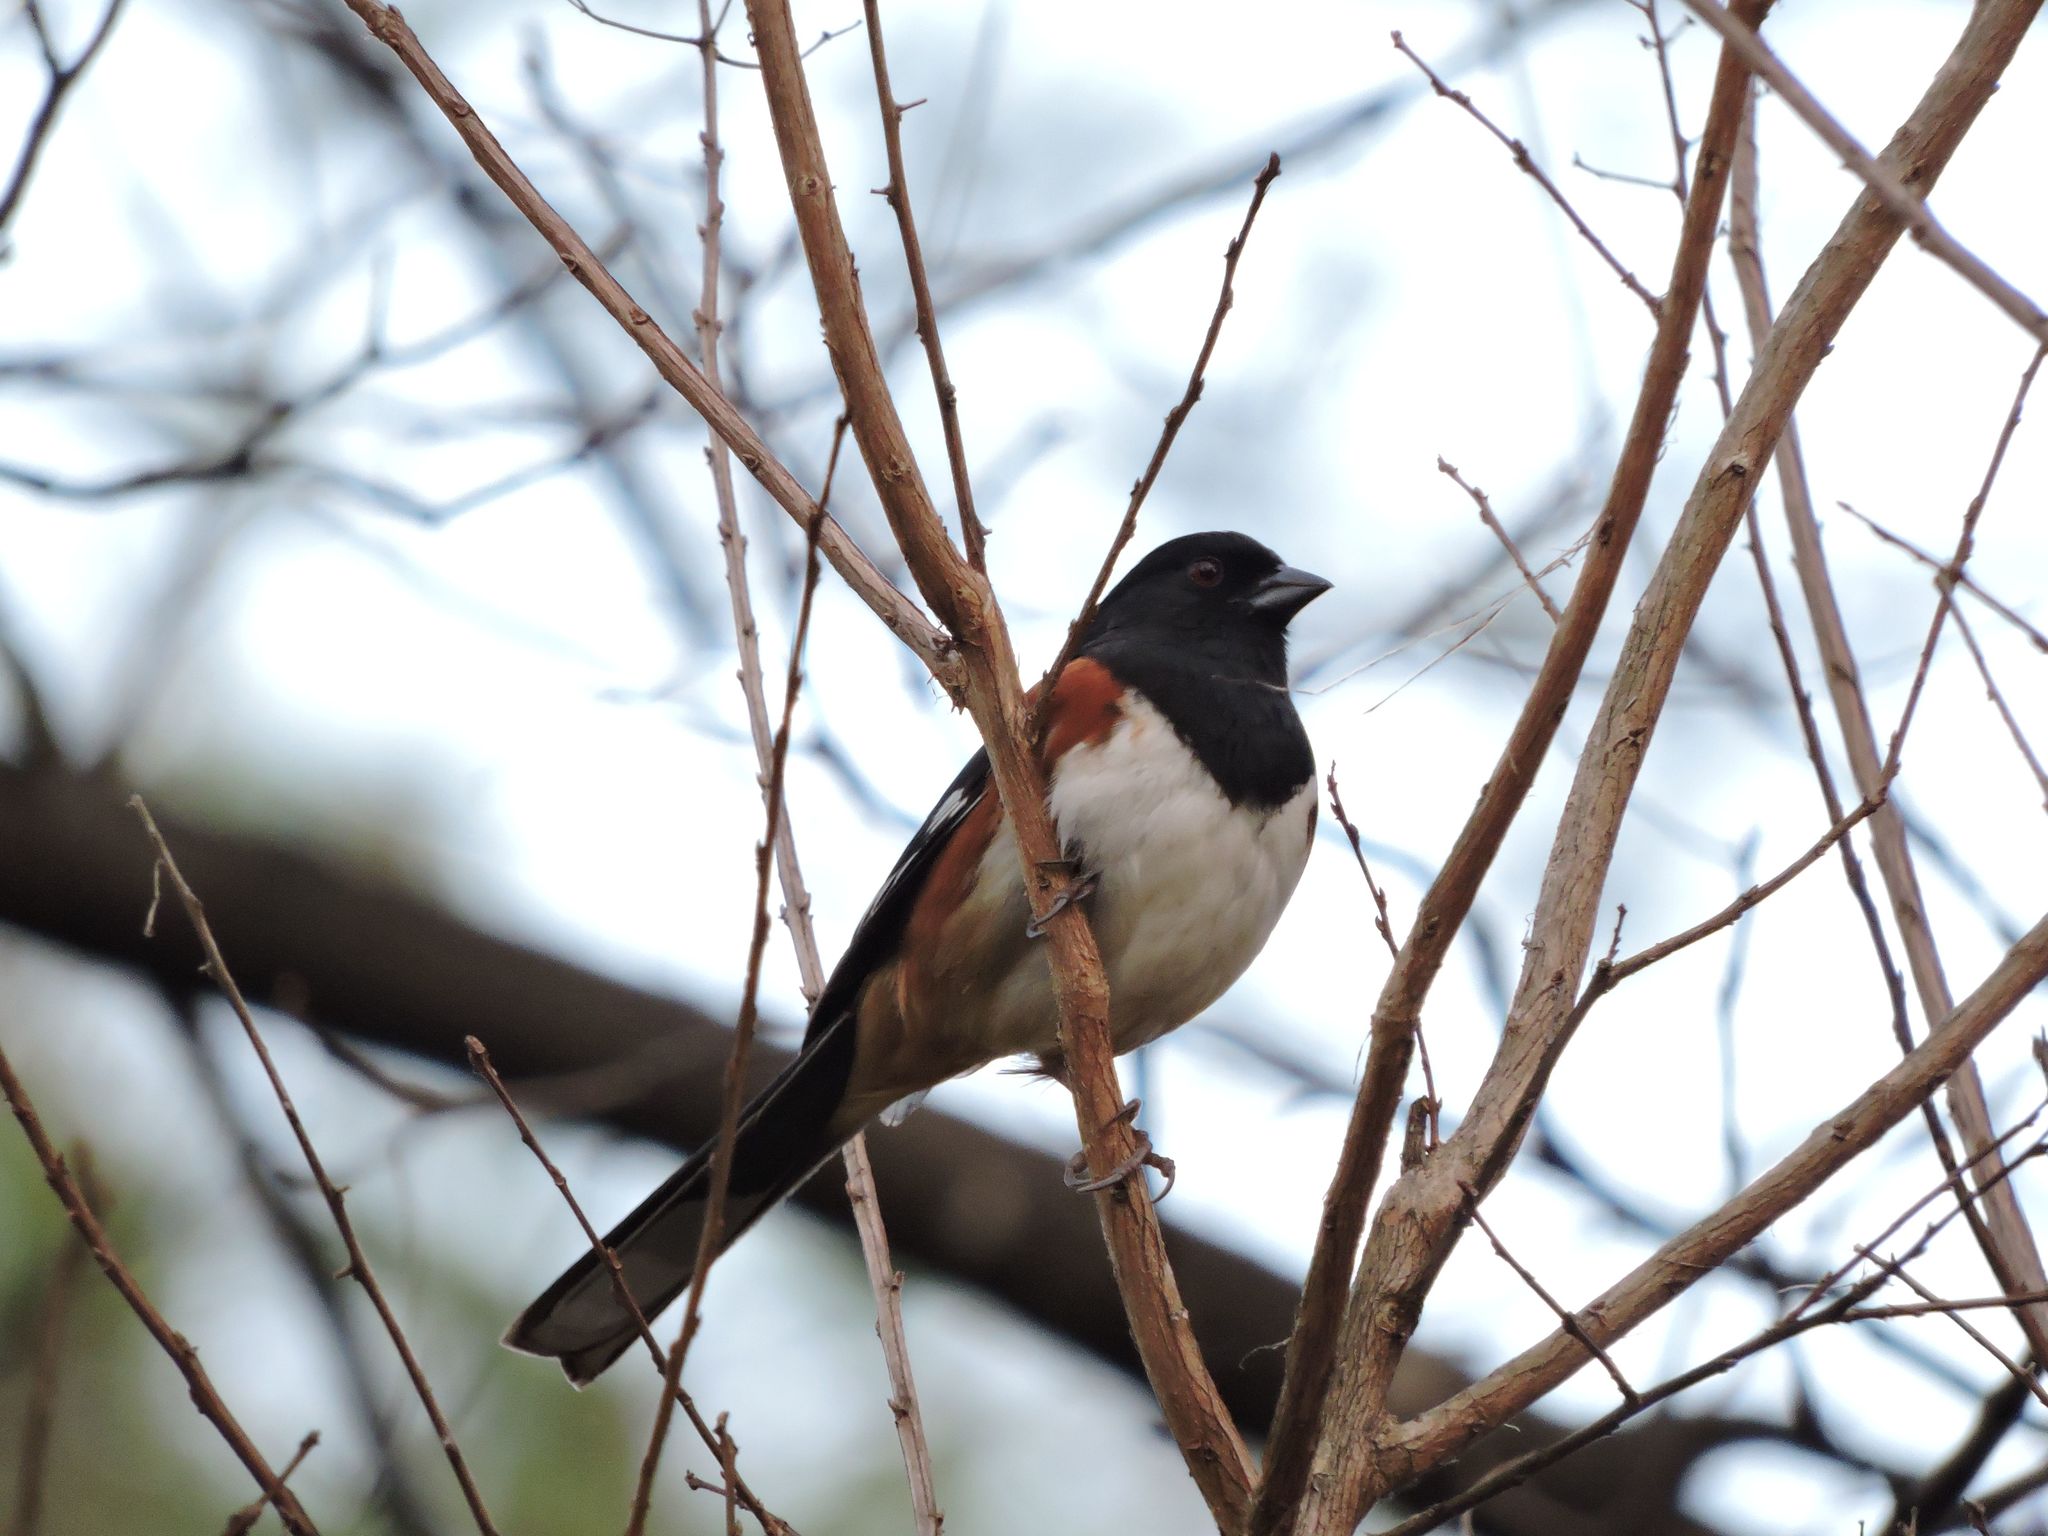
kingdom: Animalia
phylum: Chordata
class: Aves
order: Passeriformes
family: Passerellidae
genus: Pipilo
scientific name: Pipilo erythrophthalmus
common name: Eastern towhee
